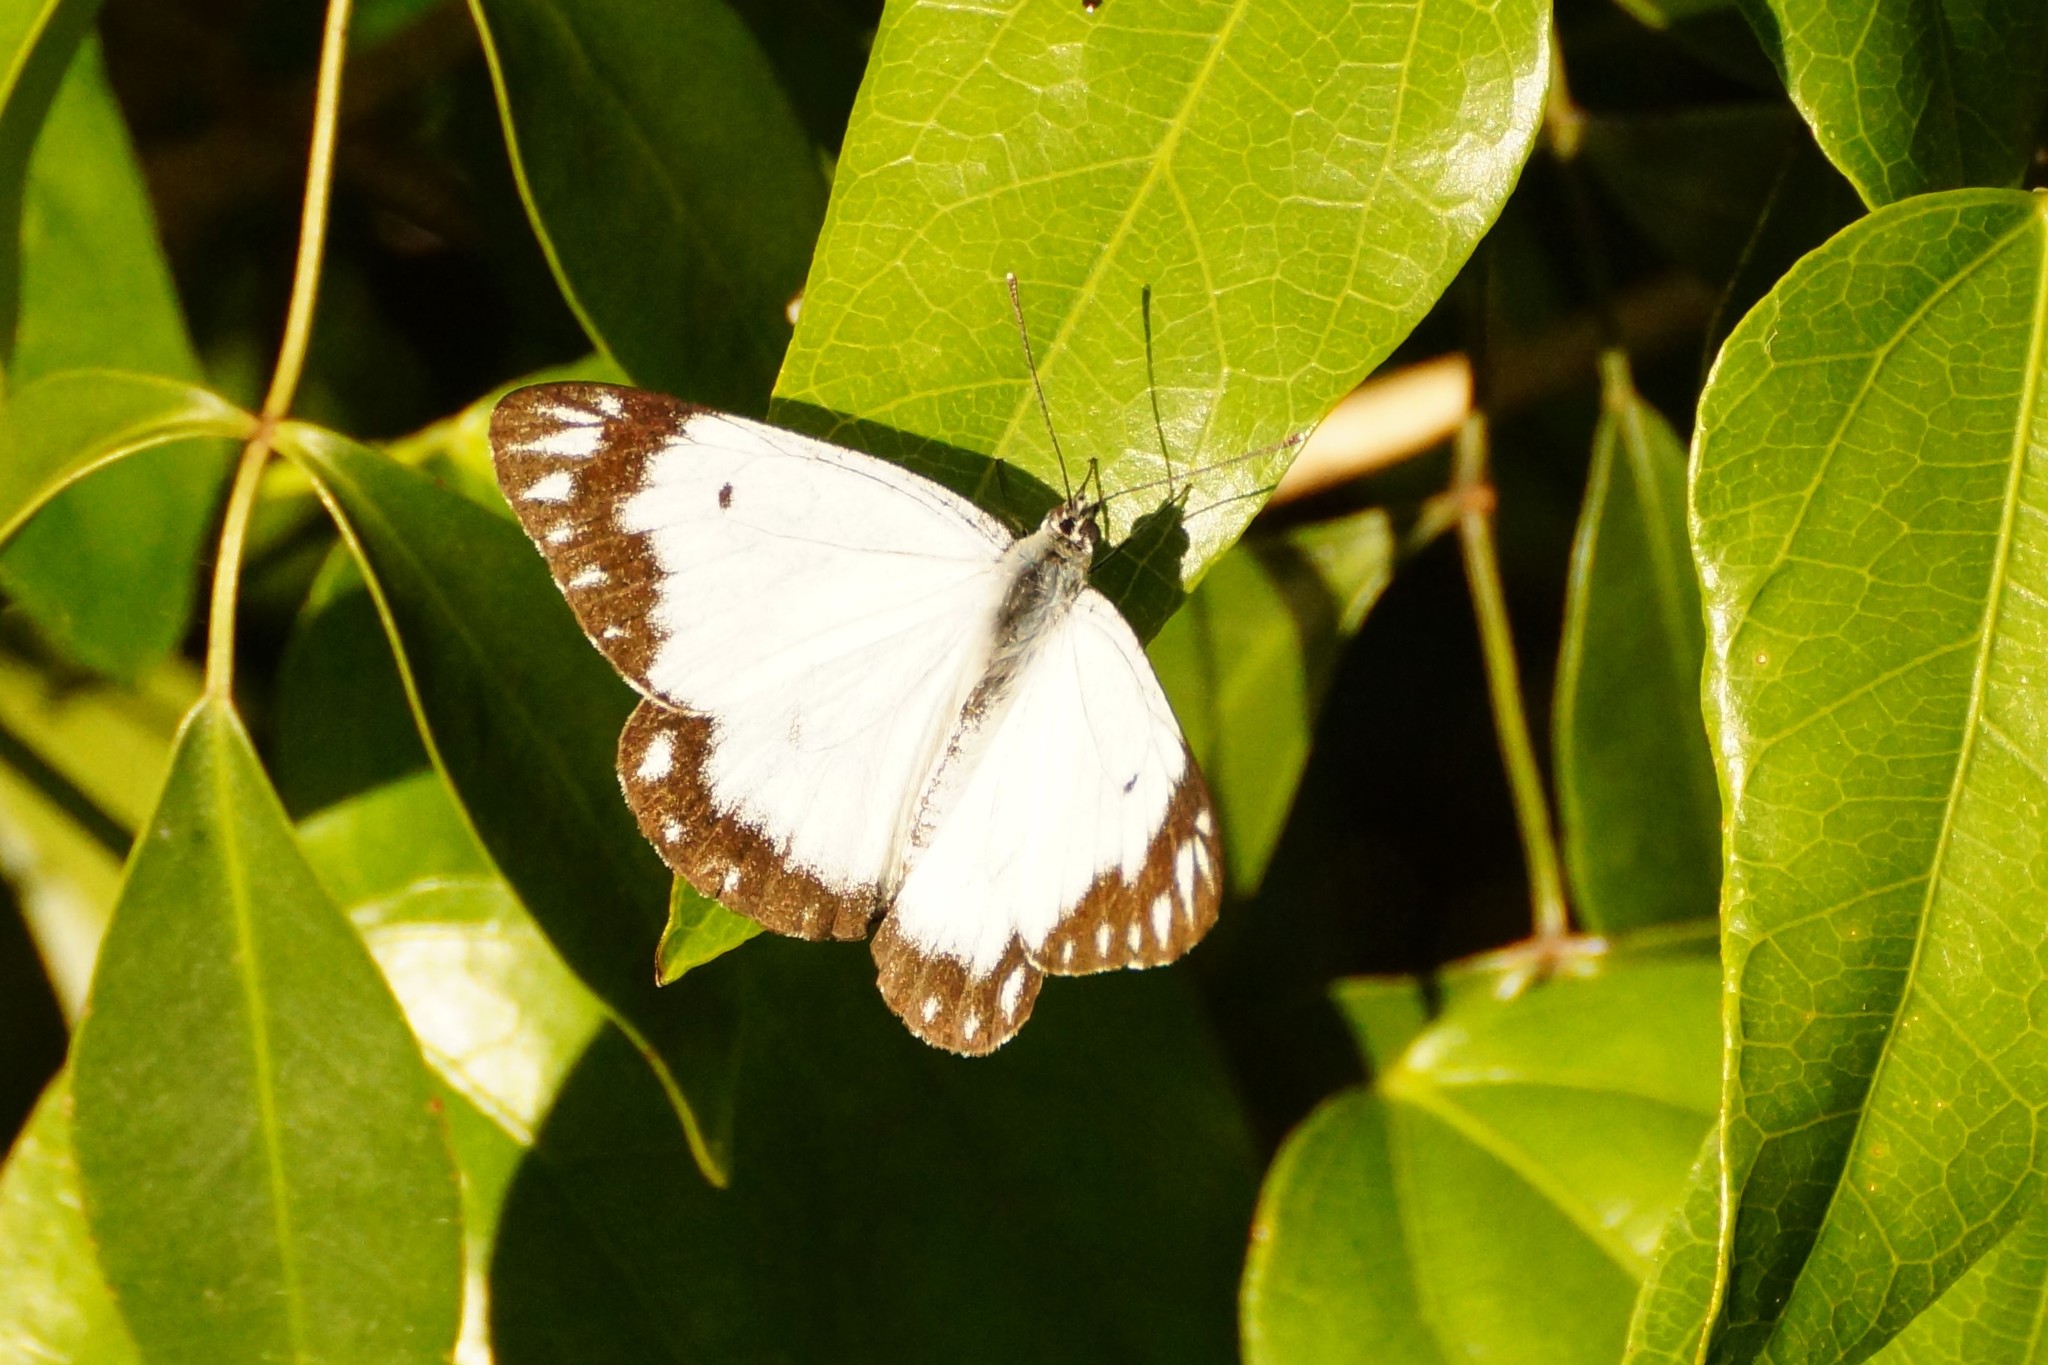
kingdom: Animalia
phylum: Arthropoda
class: Insecta
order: Lepidoptera
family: Pieridae
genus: Belenois
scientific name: Belenois java
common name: Caper white
